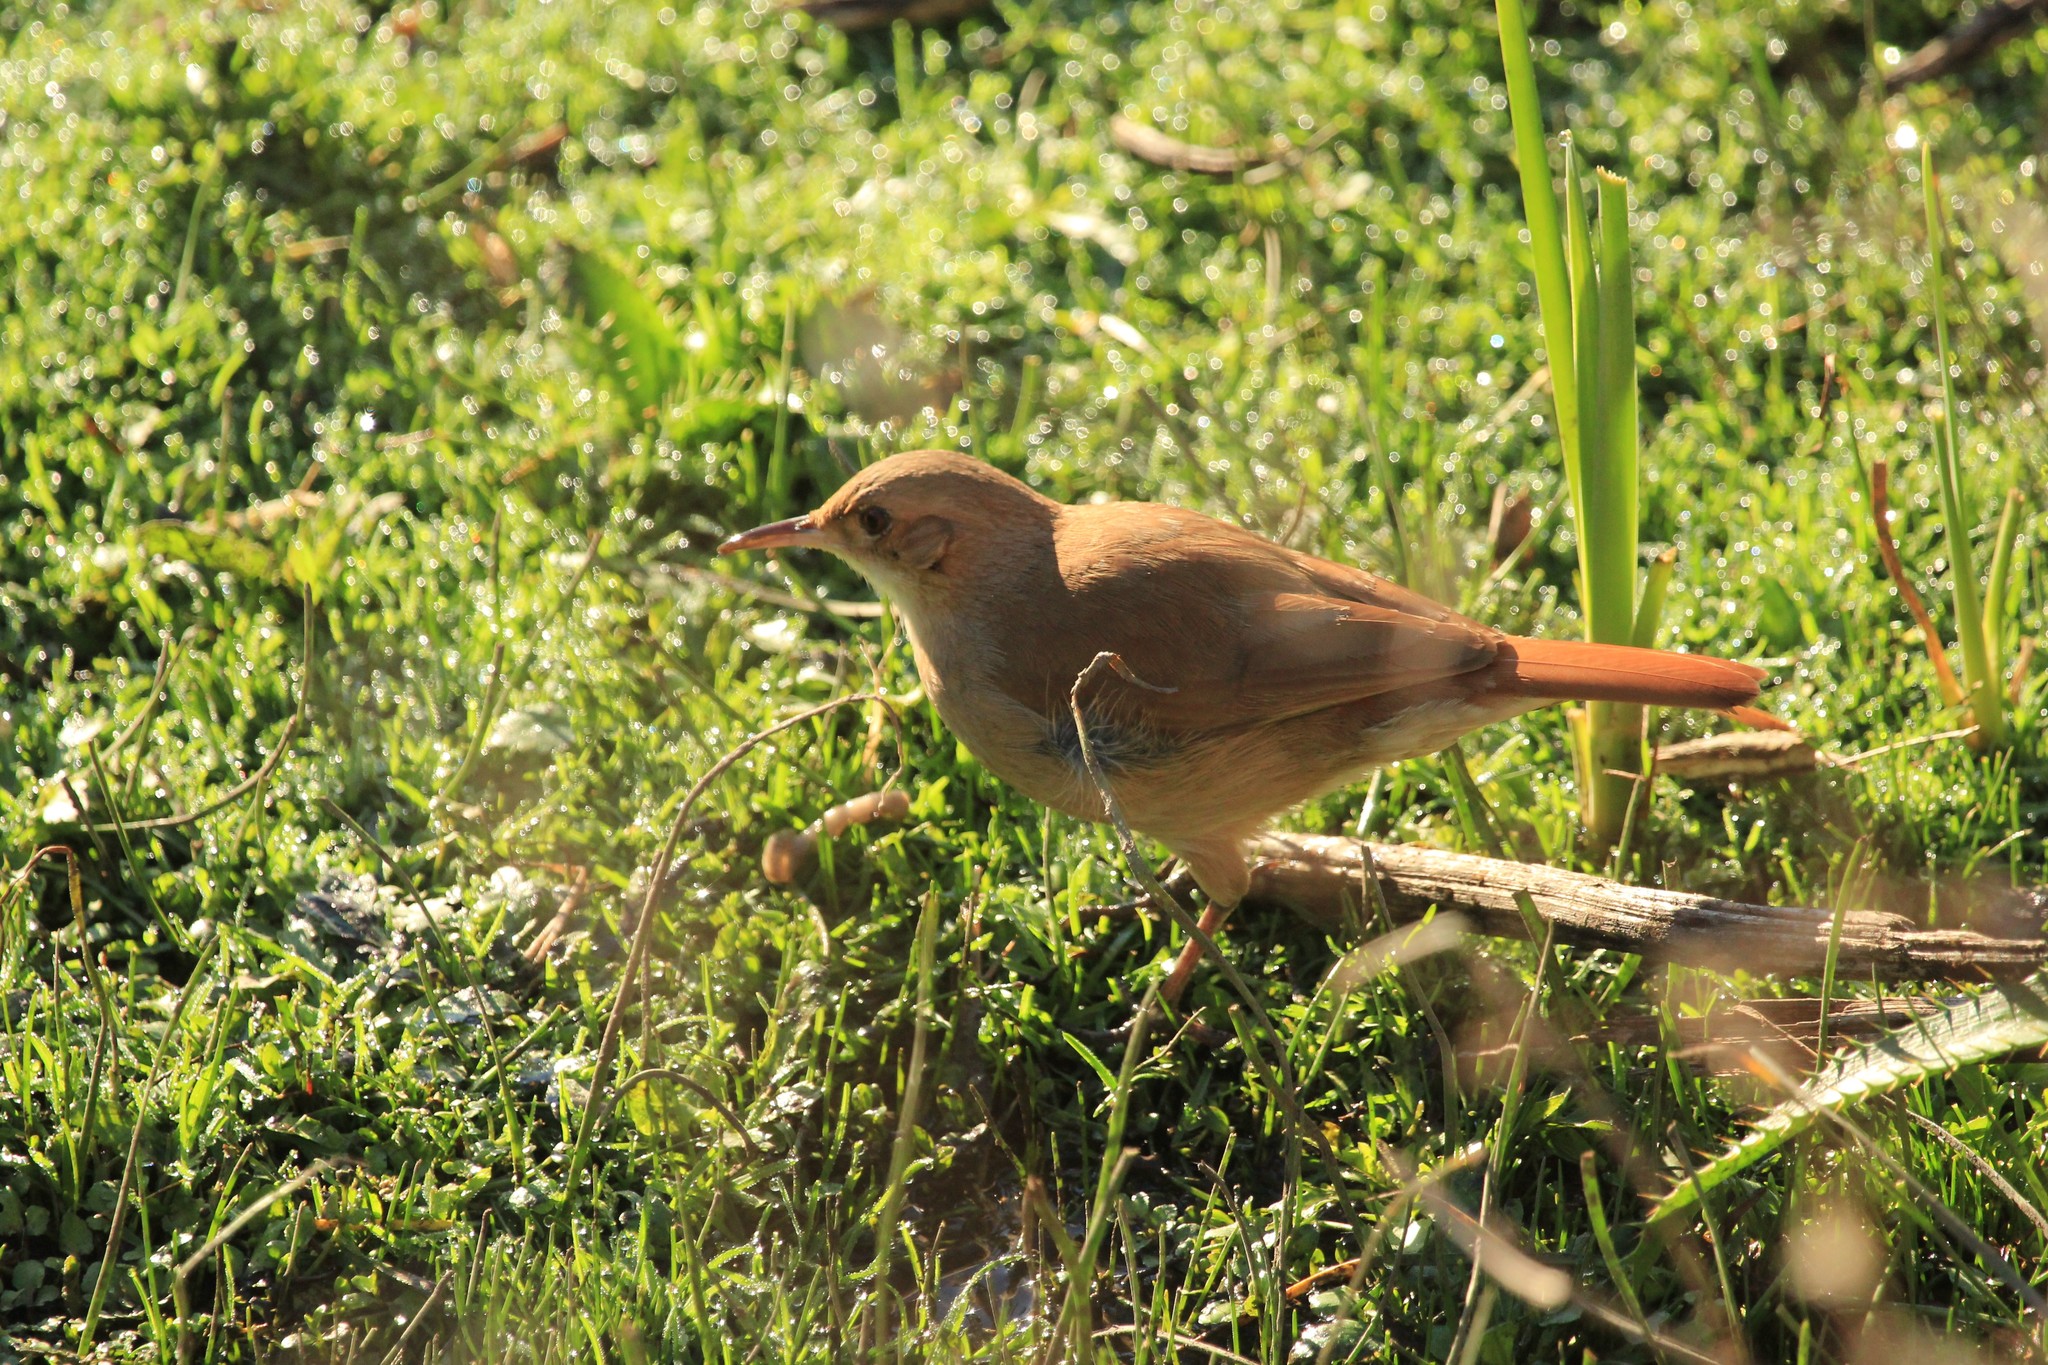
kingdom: Animalia
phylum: Chordata
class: Aves
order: Passeriformes
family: Furnariidae
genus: Furnarius
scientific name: Furnarius rufus
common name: Rufous hornero
